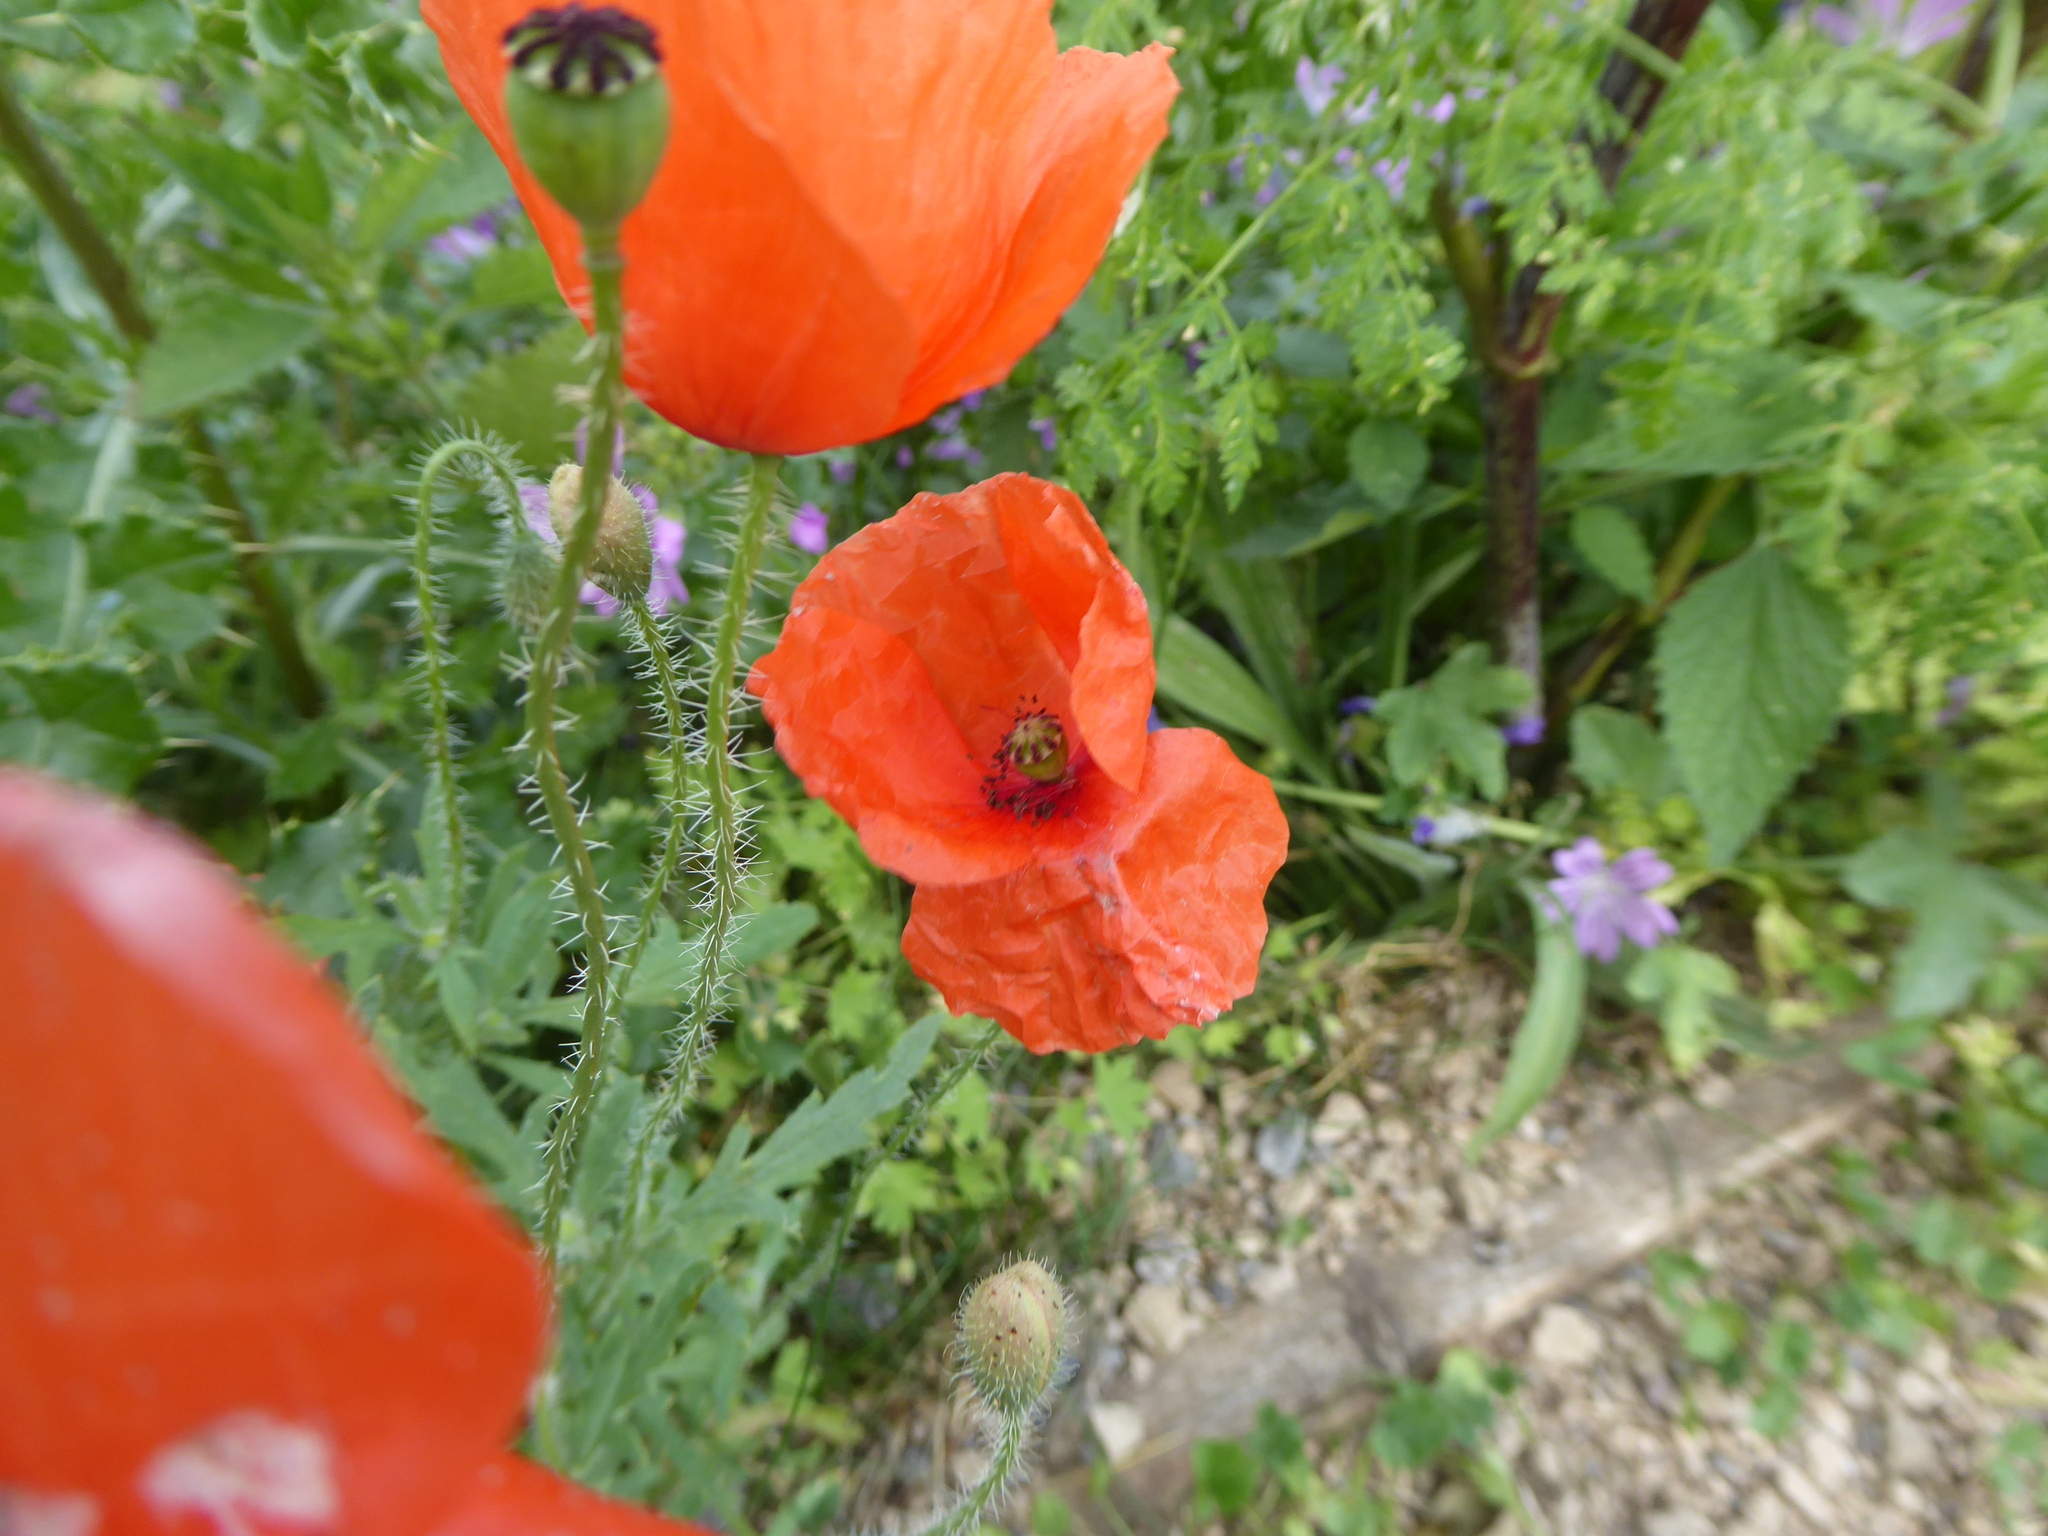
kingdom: Plantae
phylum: Tracheophyta
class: Magnoliopsida
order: Ranunculales
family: Papaveraceae
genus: Papaver
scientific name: Papaver rhoeas
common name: Corn poppy
